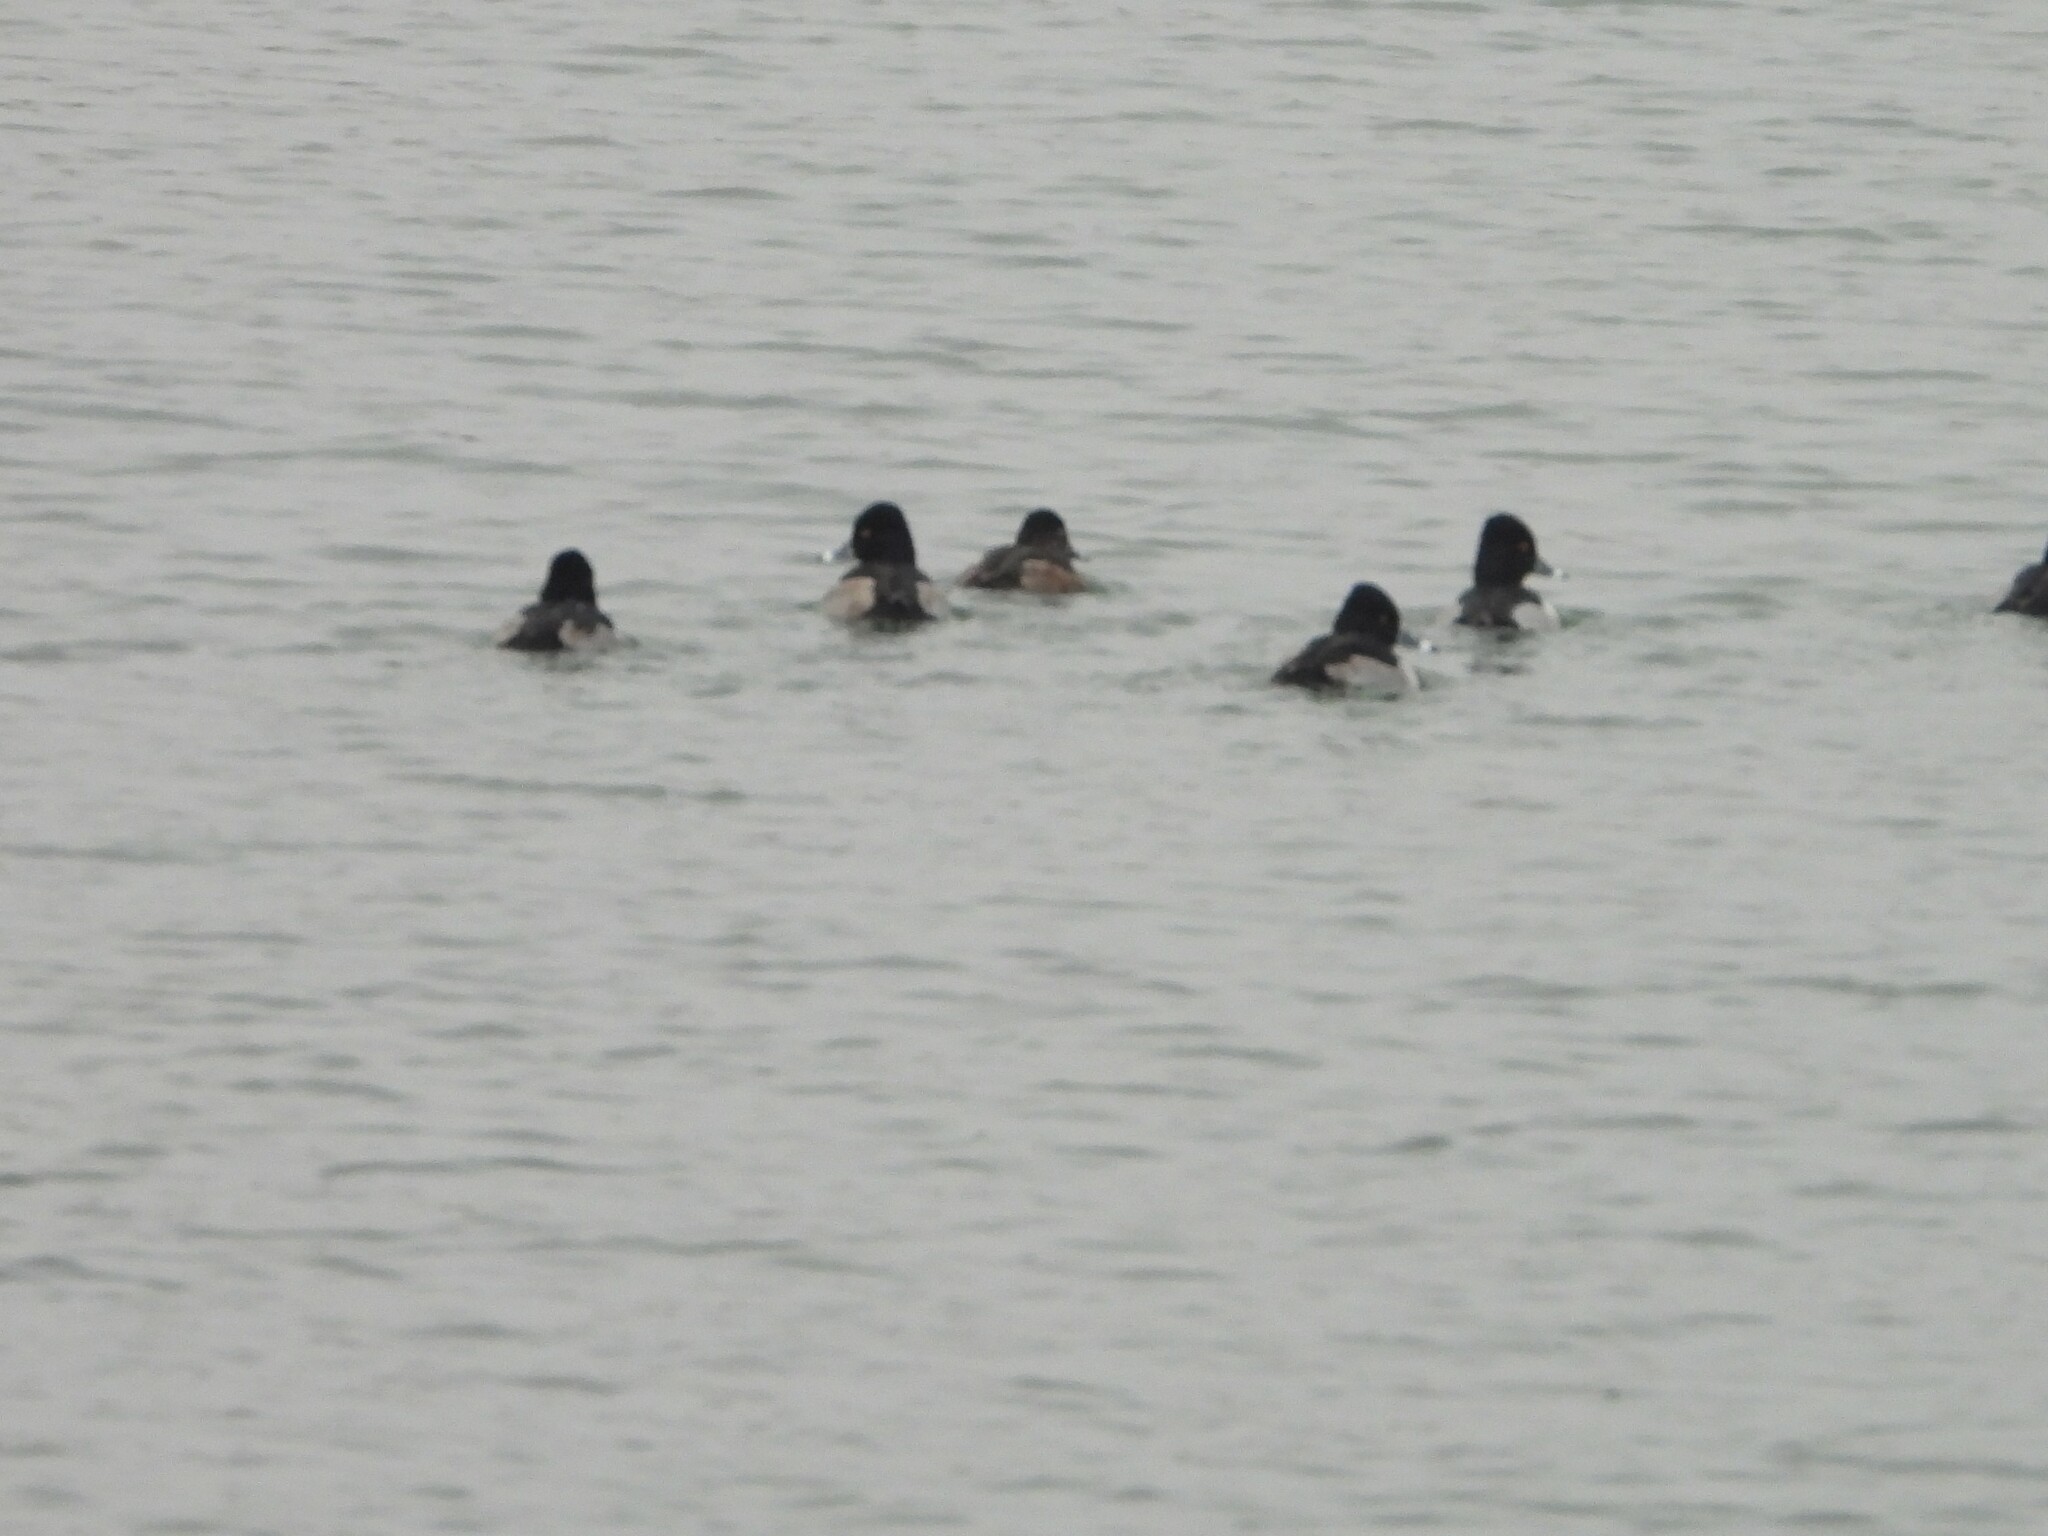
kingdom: Animalia
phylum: Chordata
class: Aves
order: Anseriformes
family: Anatidae
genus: Aythya
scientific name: Aythya collaris
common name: Ring-necked duck
